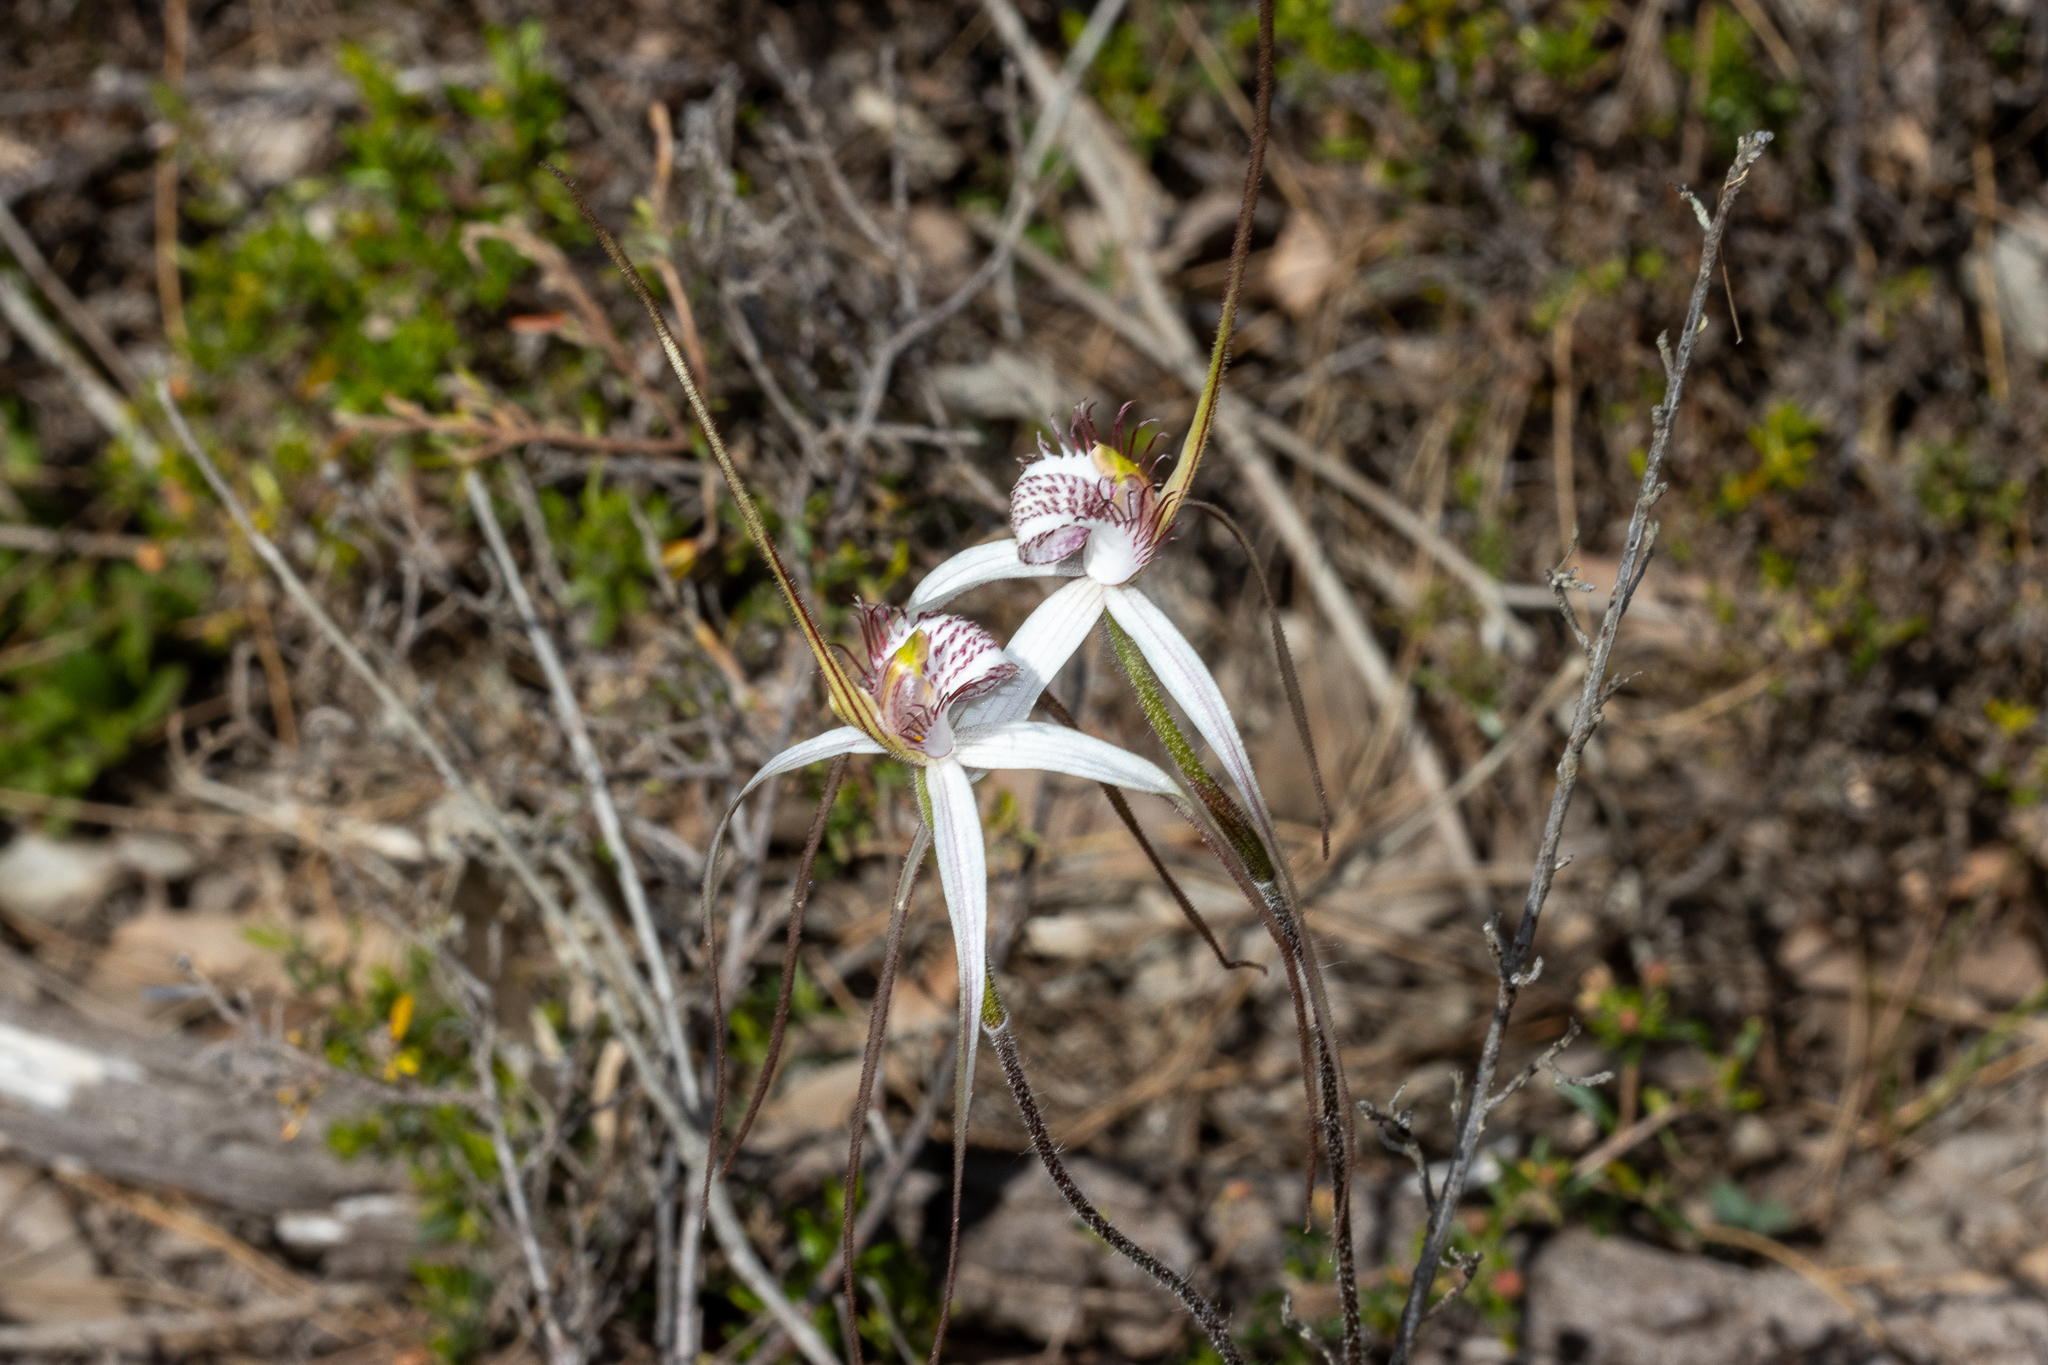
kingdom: Plantae
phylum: Tracheophyta
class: Liliopsida
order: Asparagales
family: Orchidaceae
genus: Caladenia
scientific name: Caladenia longicauda
